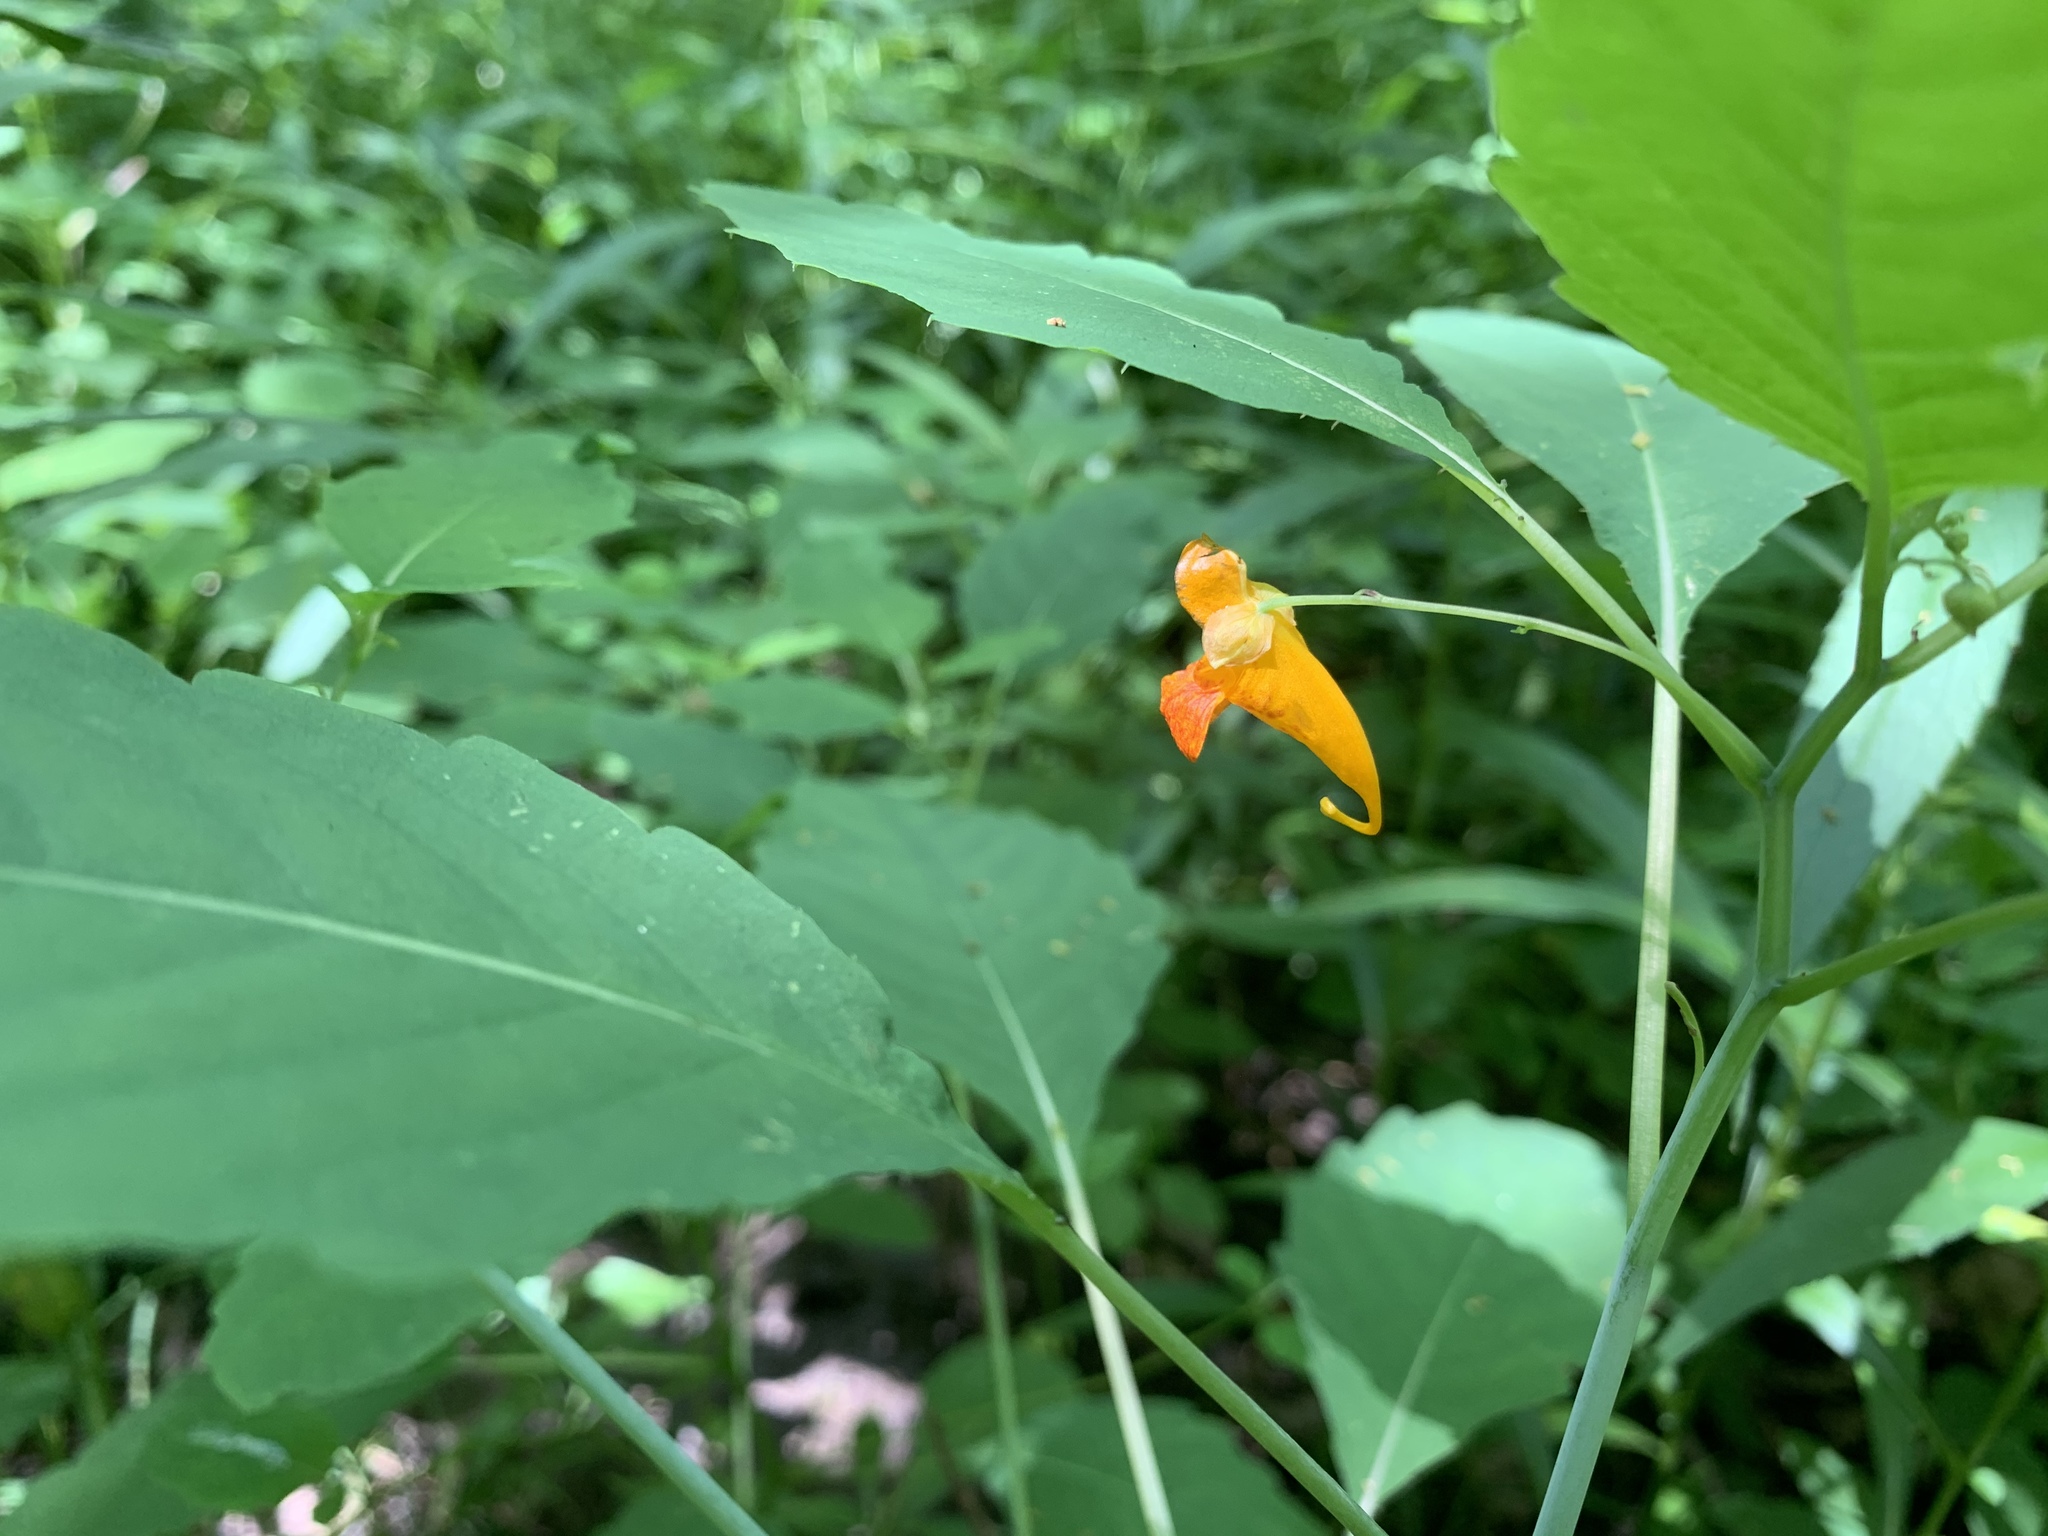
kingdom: Plantae
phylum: Tracheophyta
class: Magnoliopsida
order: Ericales
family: Balsaminaceae
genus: Impatiens
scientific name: Impatiens capensis
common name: Orange balsam
